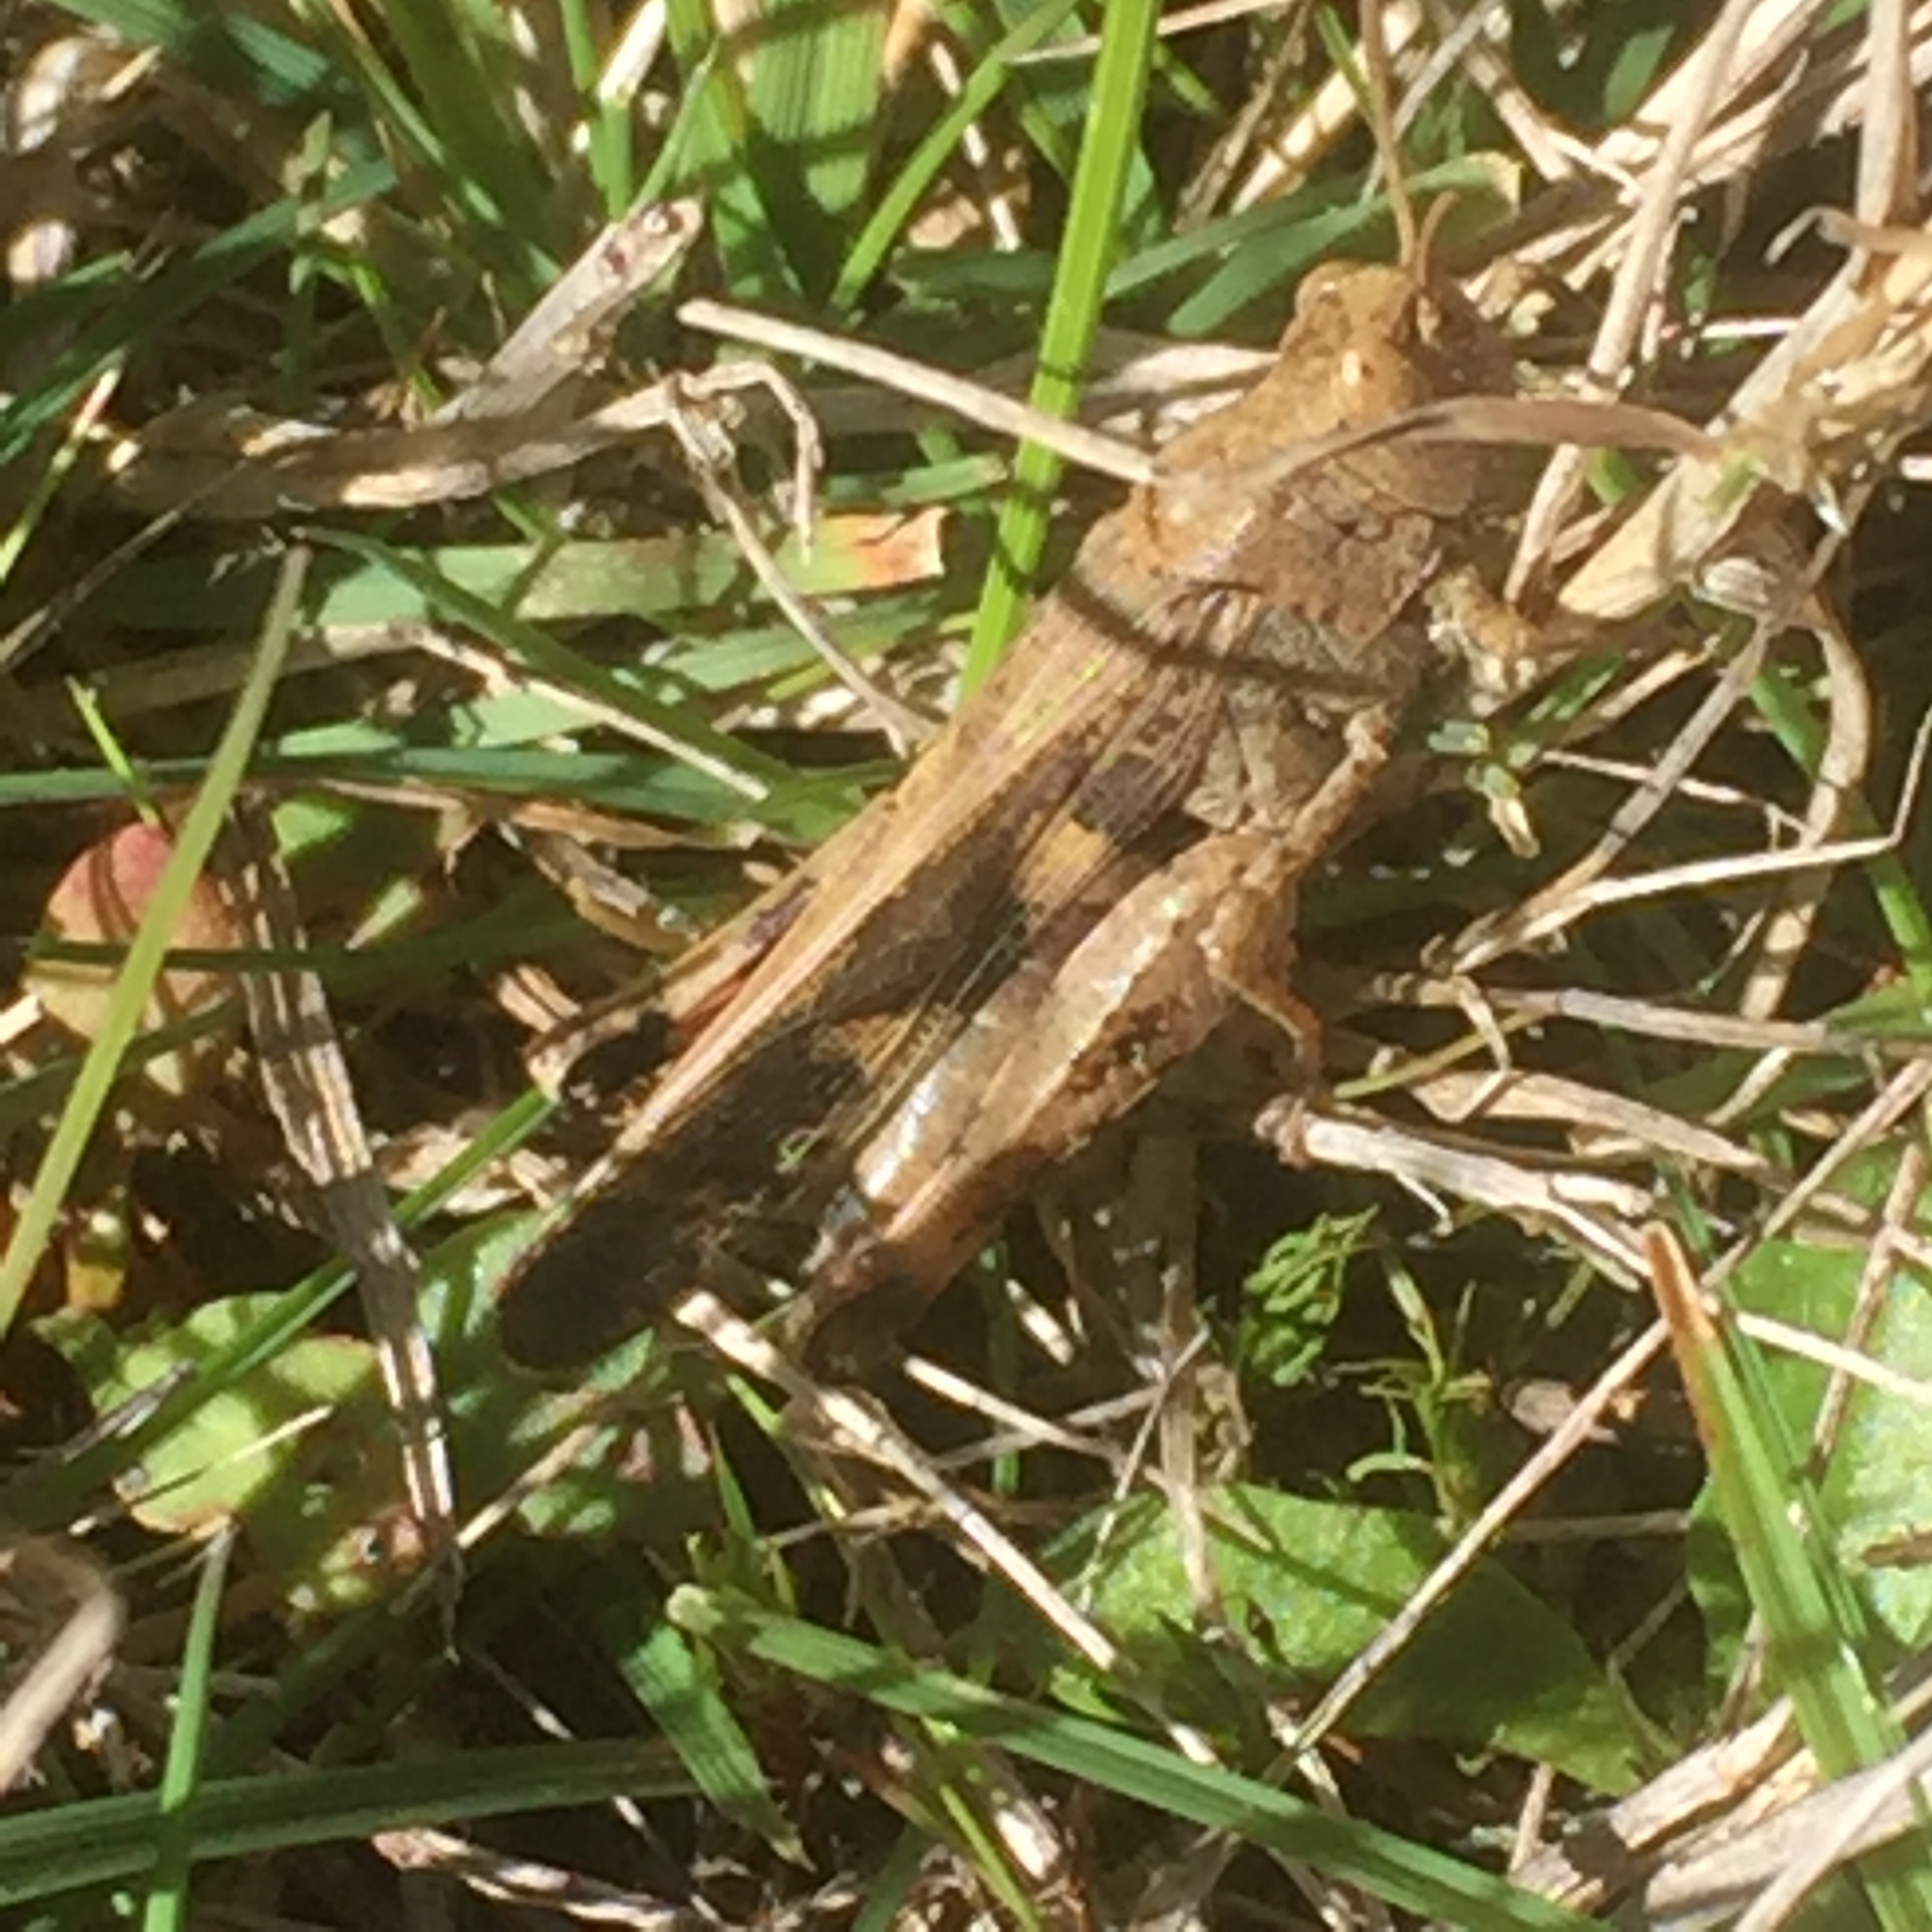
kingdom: Animalia
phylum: Arthropoda
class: Insecta
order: Orthoptera
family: Acrididae
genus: Aiolopus
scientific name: Aiolopus strepens
